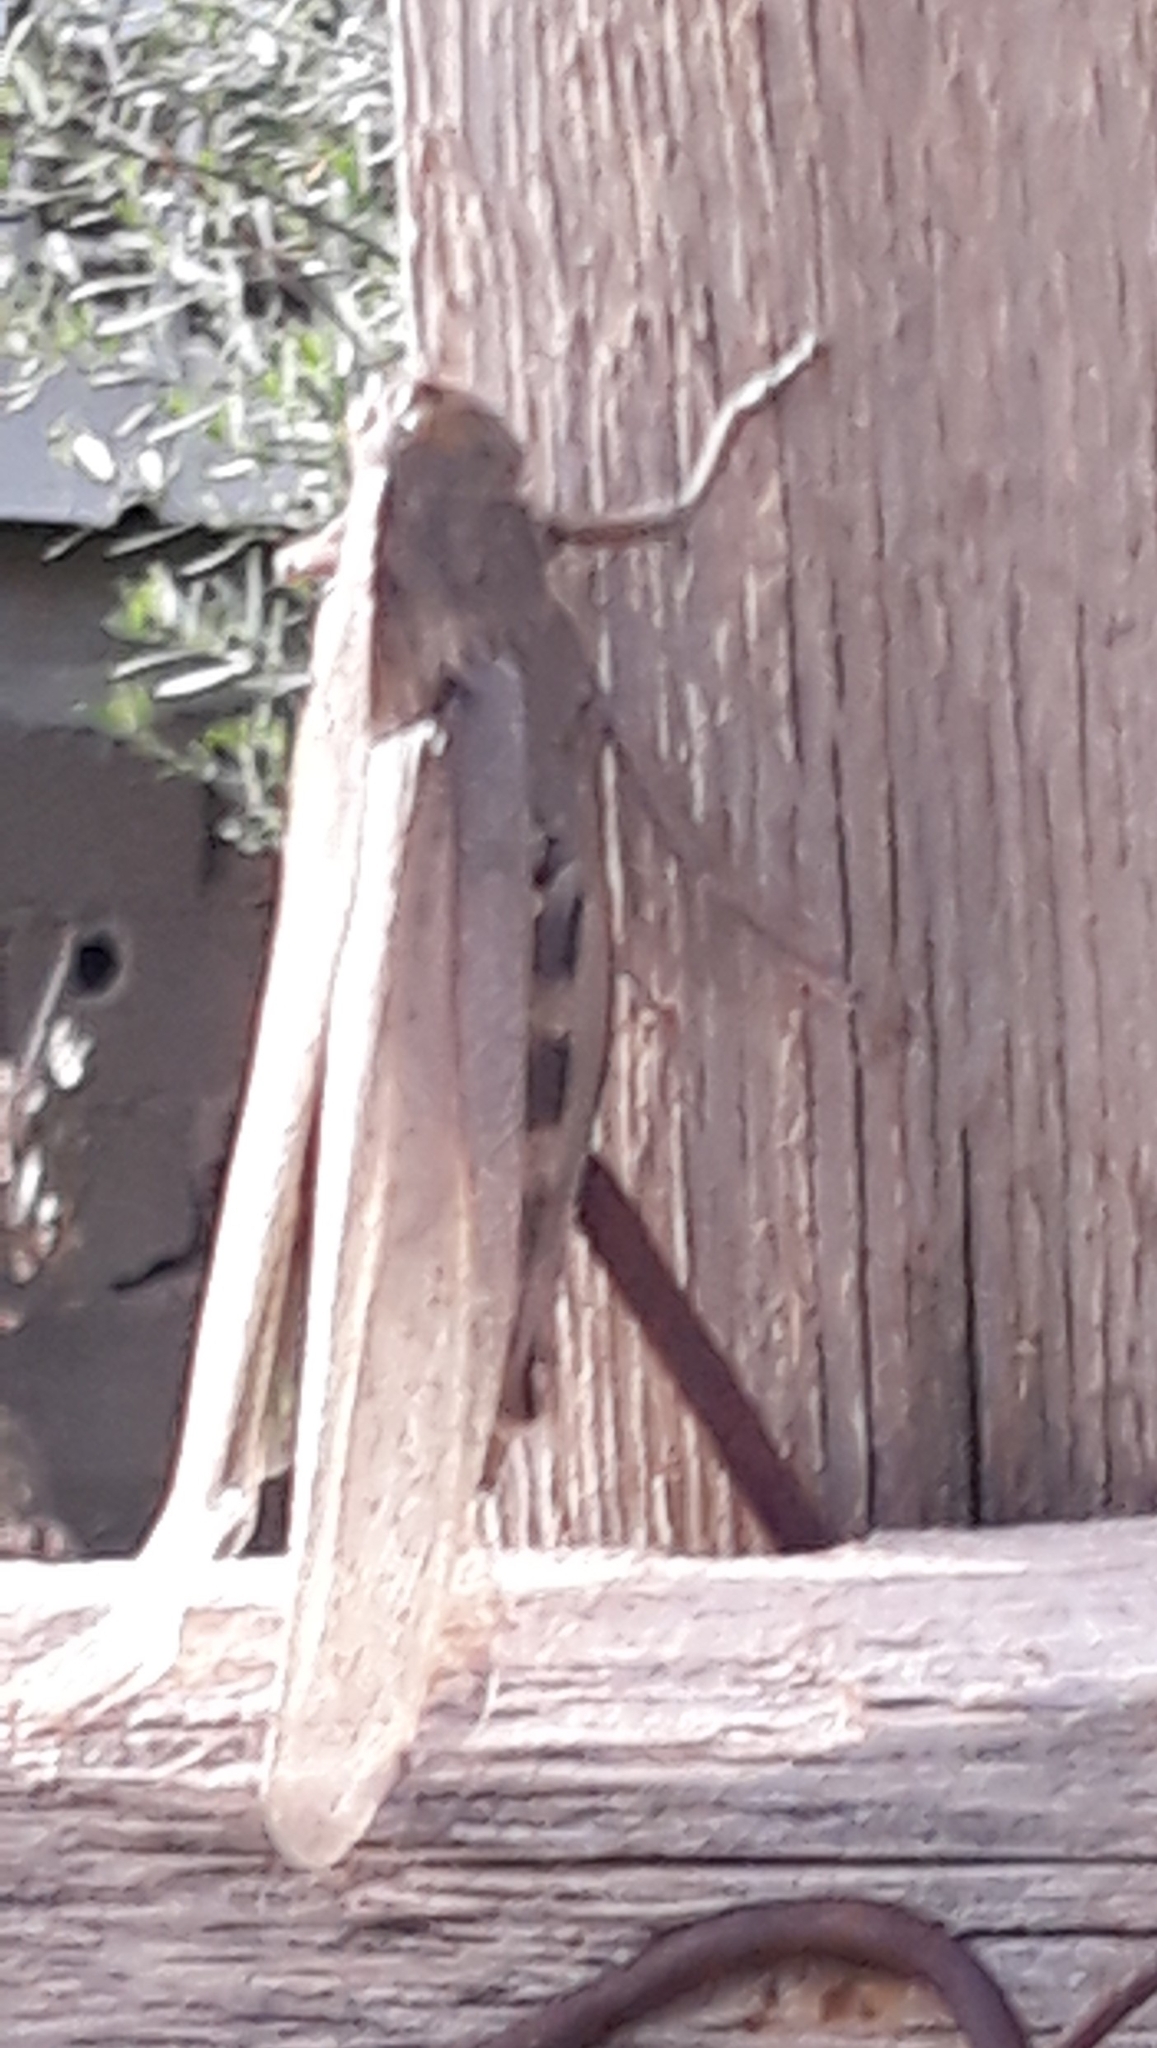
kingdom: Animalia
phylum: Arthropoda
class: Insecta
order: Orthoptera
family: Acrididae
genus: Anacridium
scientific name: Anacridium aegyptium
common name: Egyptian grasshopper
